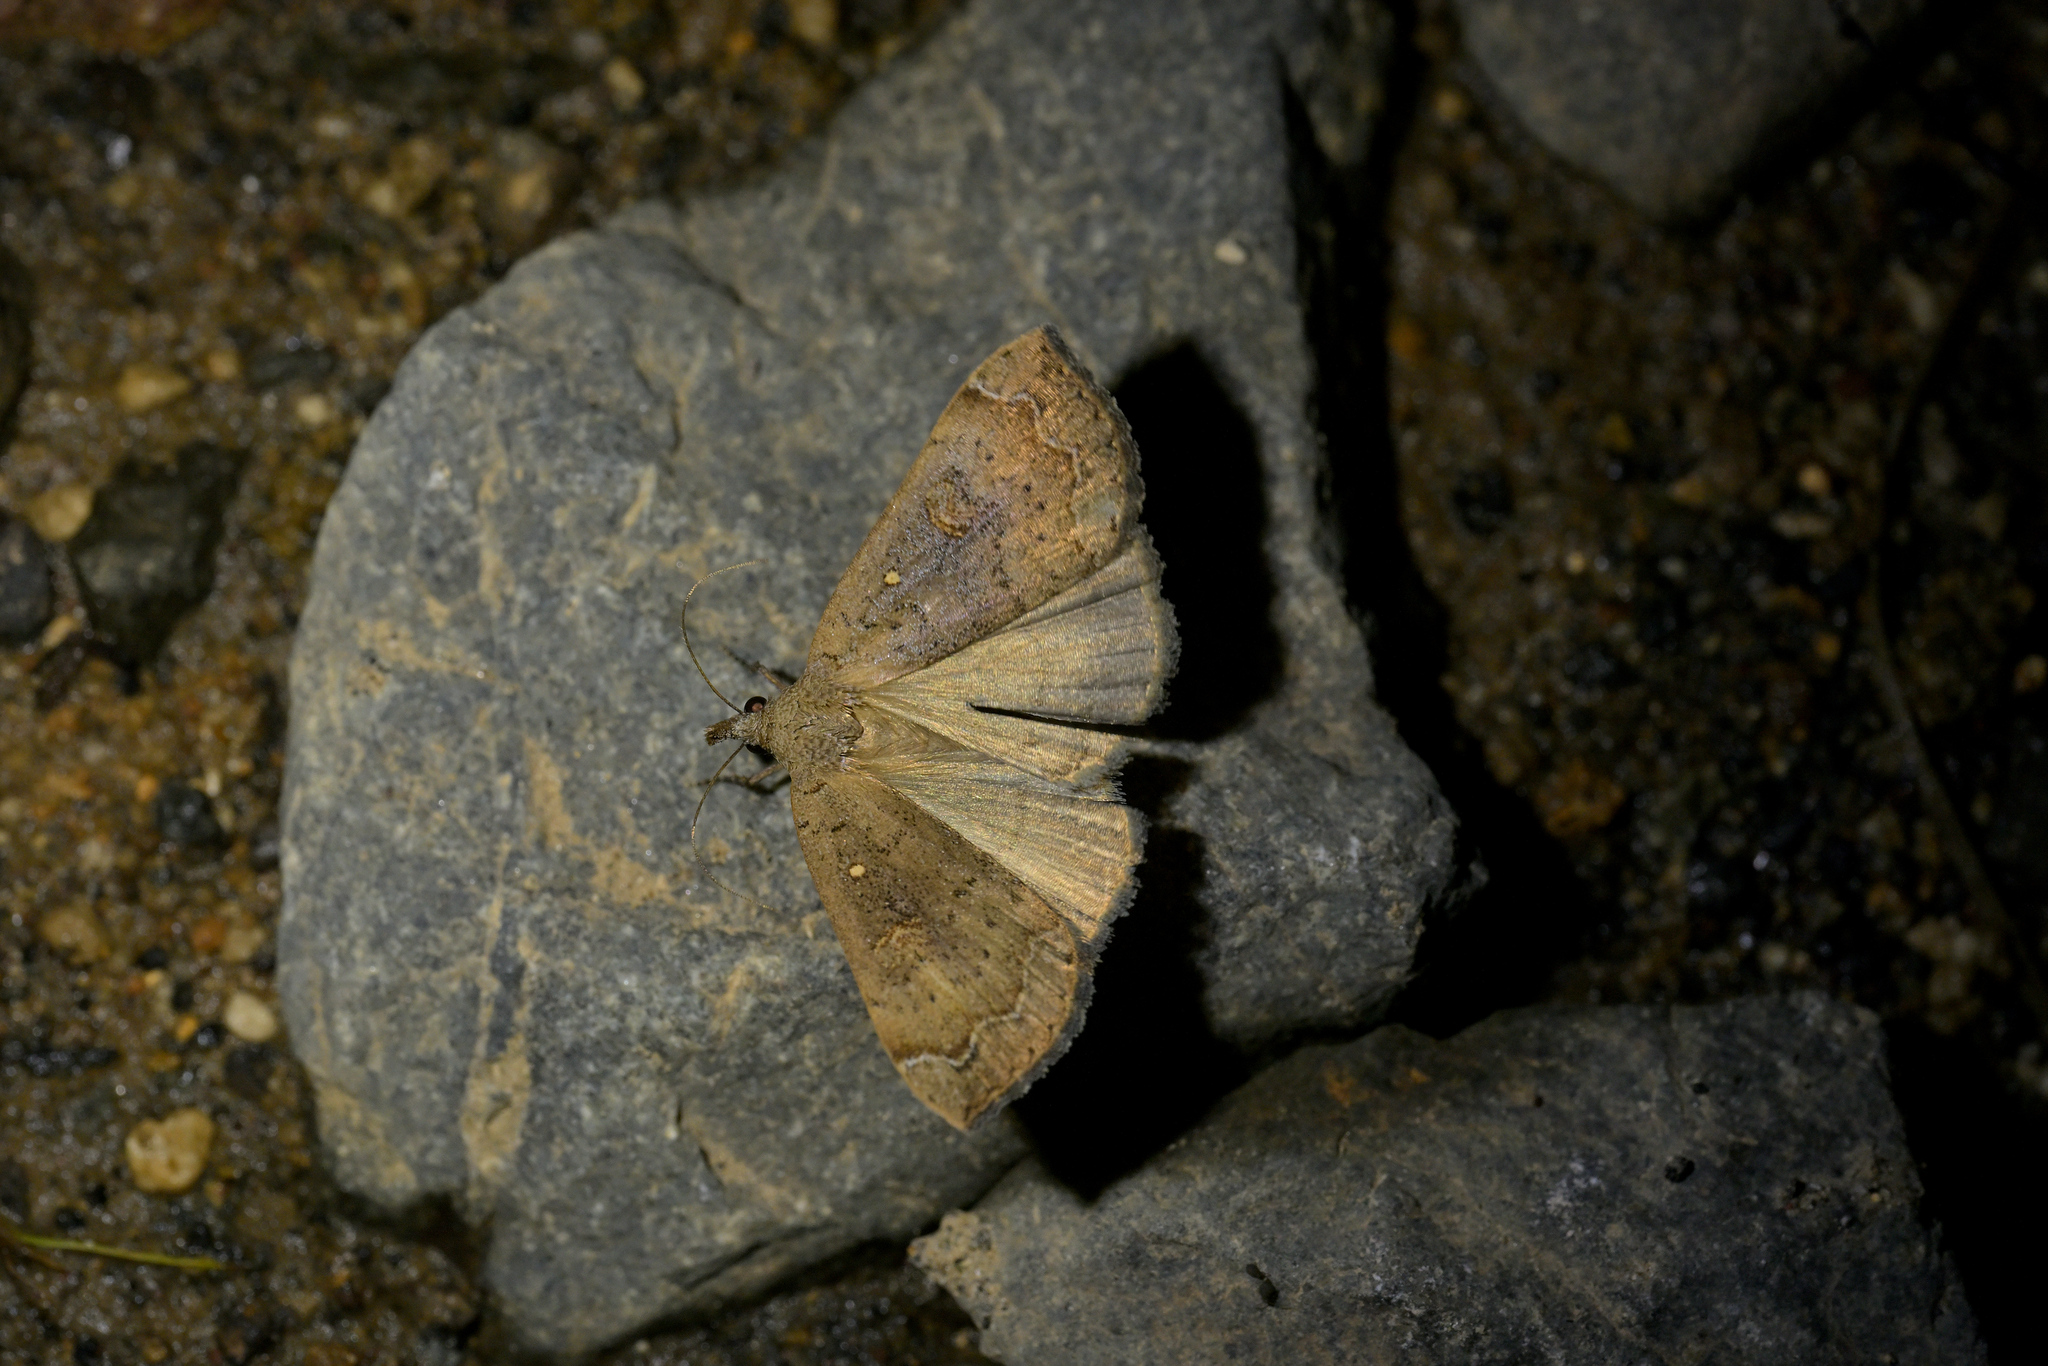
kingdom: Animalia
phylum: Arthropoda
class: Insecta
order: Lepidoptera
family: Erebidae
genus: Rhapsa
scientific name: Rhapsa scotosialis
